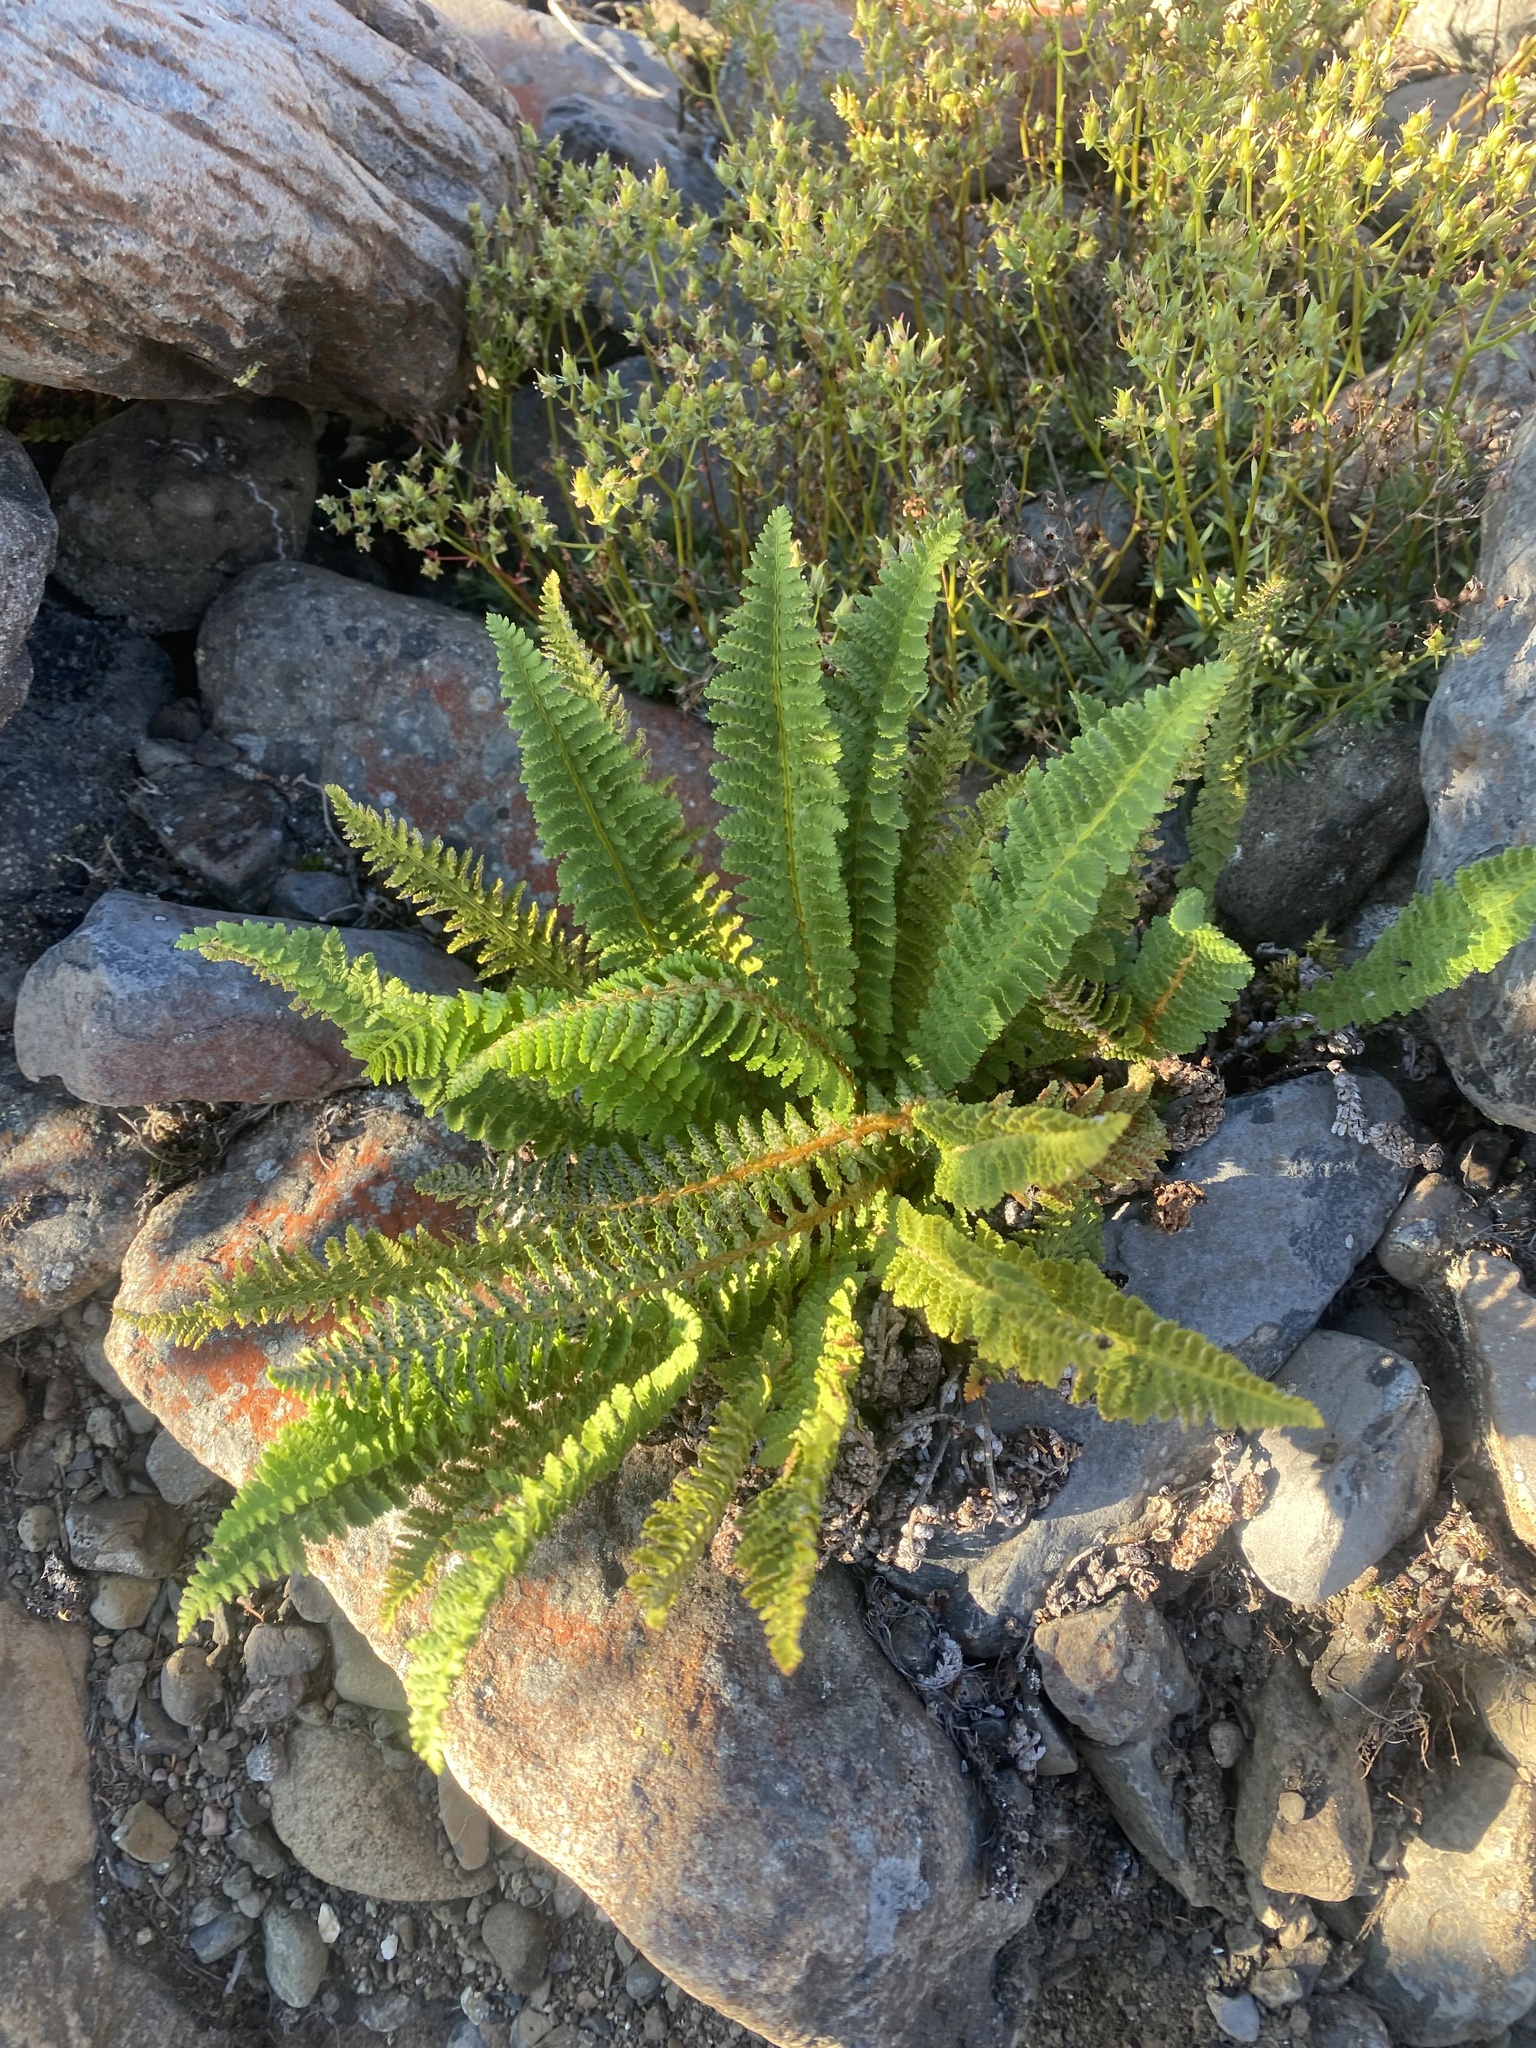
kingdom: Plantae
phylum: Tracheophyta
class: Polypodiopsida
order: Polypodiales
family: Dryopteridaceae
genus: Dryopteris
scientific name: Dryopteris fragrans
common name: Fragrant wood fern
